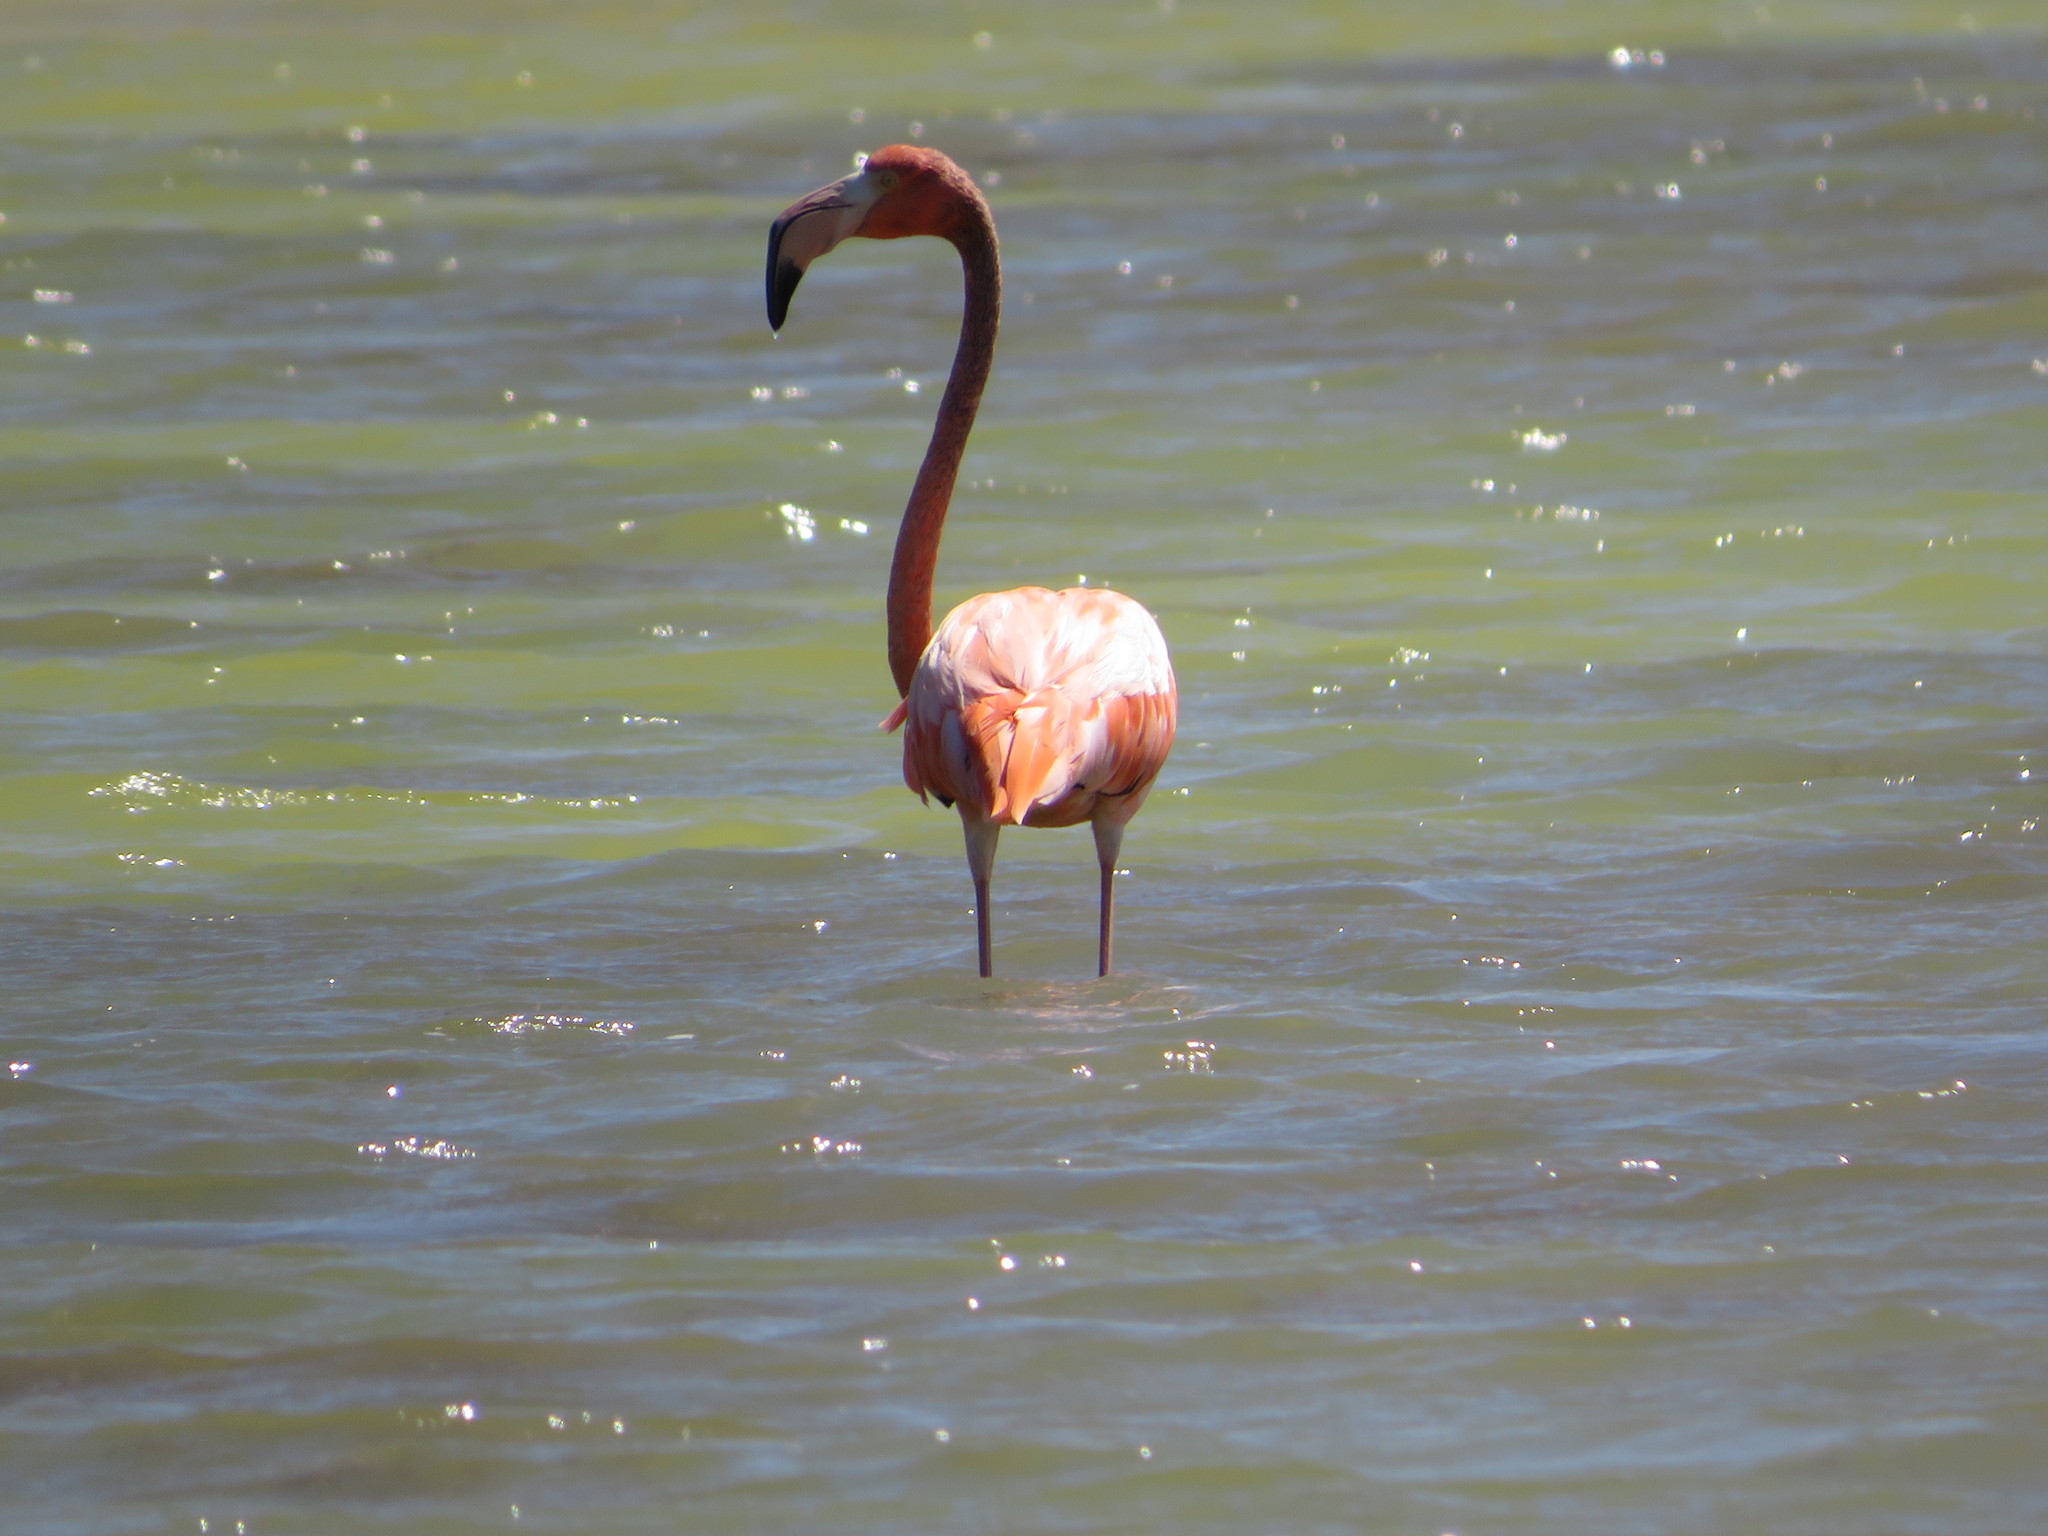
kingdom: Animalia
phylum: Chordata
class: Aves
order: Phoenicopteriformes
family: Phoenicopteridae
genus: Phoenicopterus
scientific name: Phoenicopterus ruber
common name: American flamingo
